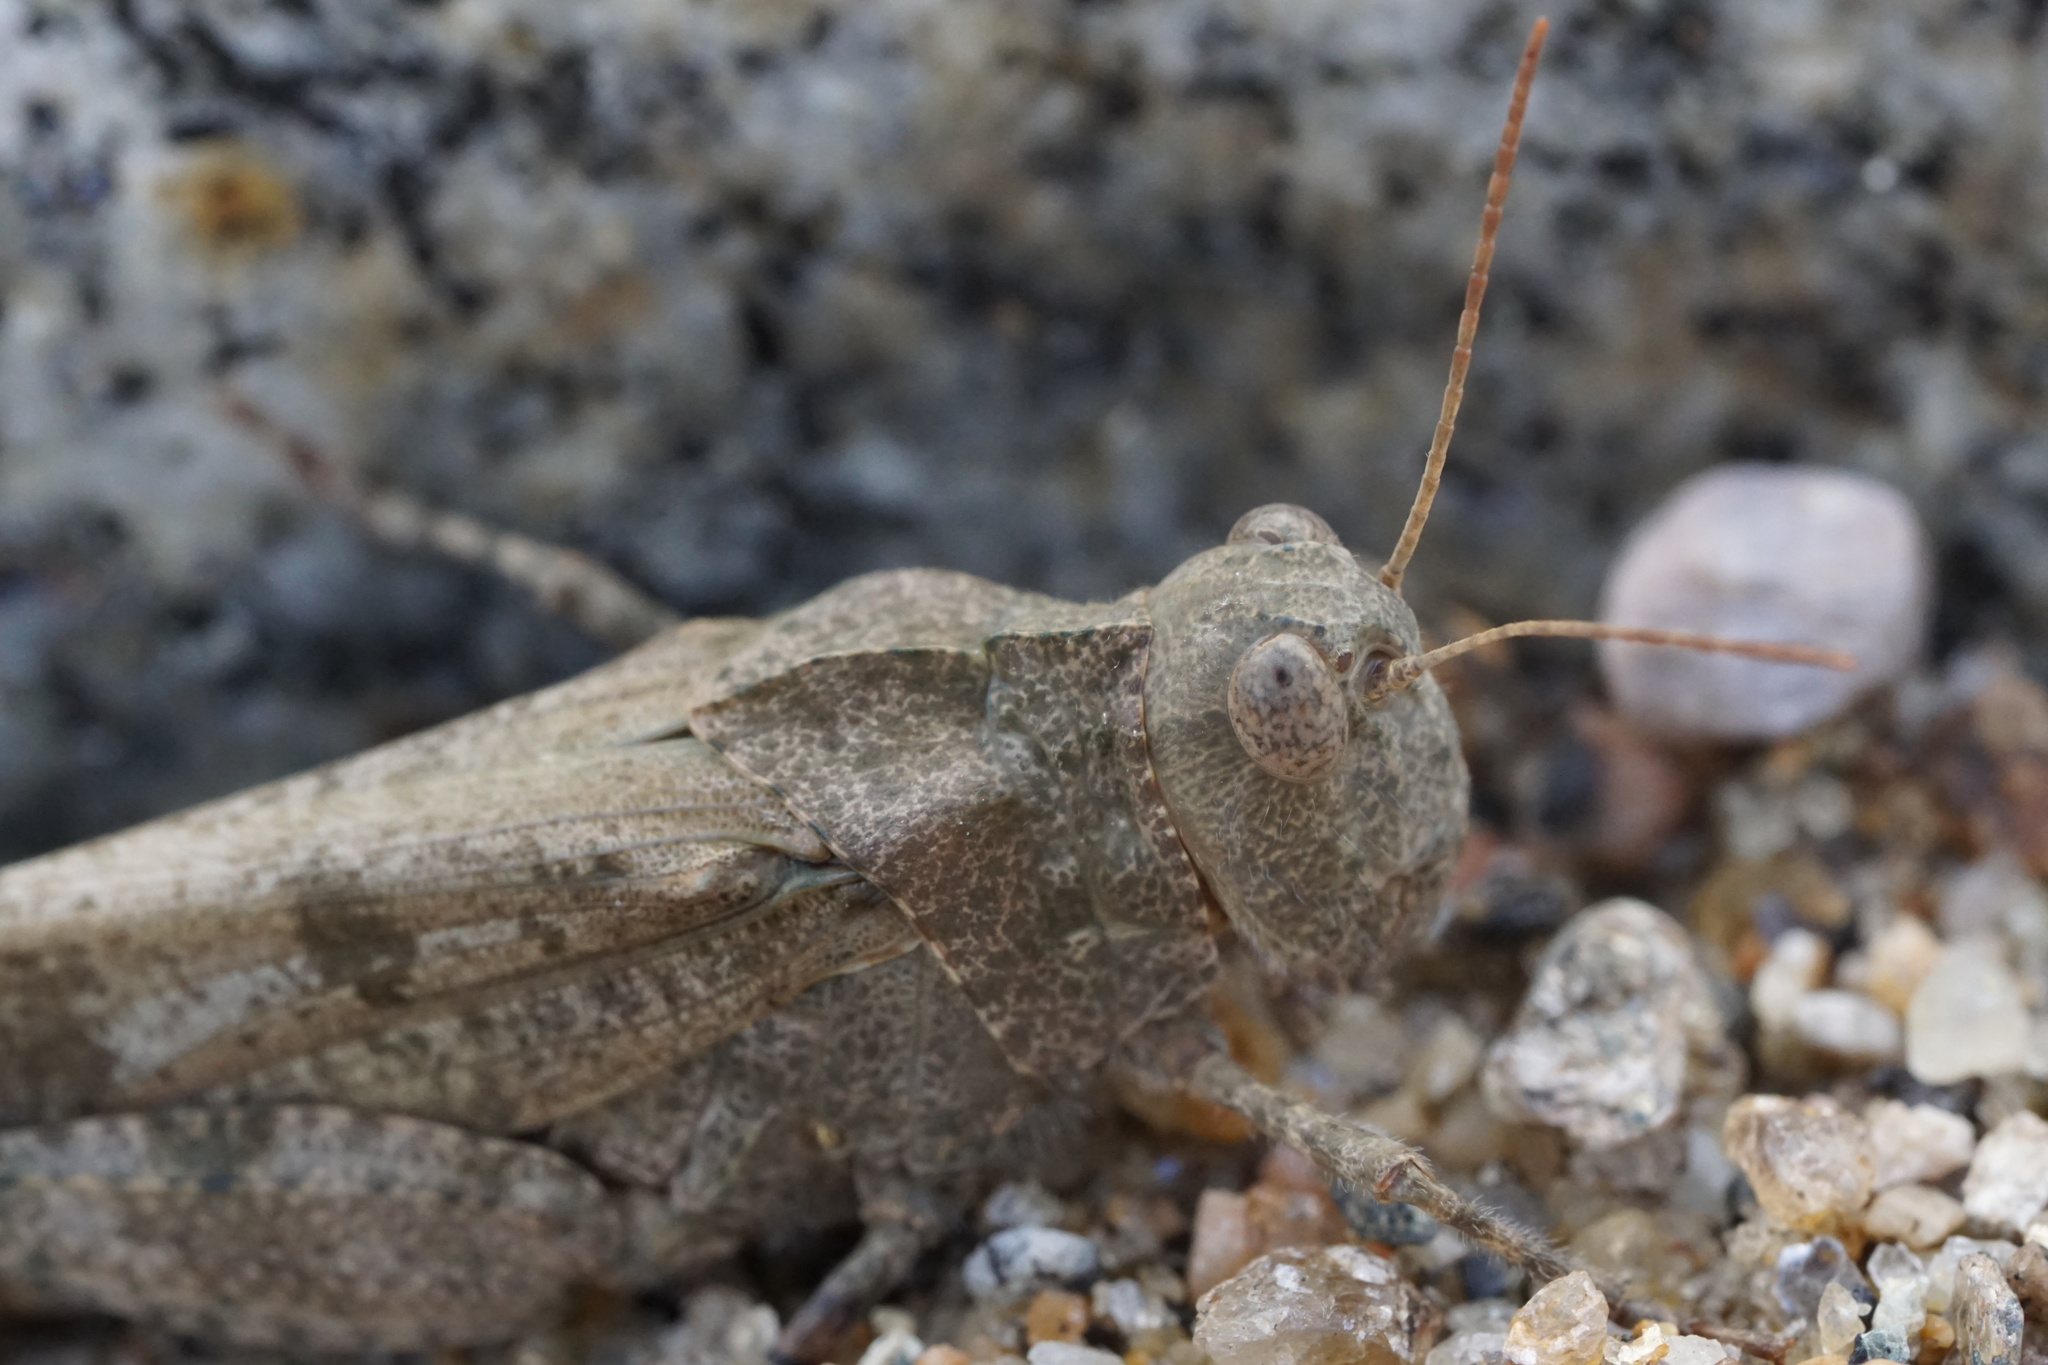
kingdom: Animalia
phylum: Arthropoda
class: Insecta
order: Orthoptera
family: Acrididae
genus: Dissosteira
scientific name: Dissosteira carolina
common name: Carolina grasshopper
